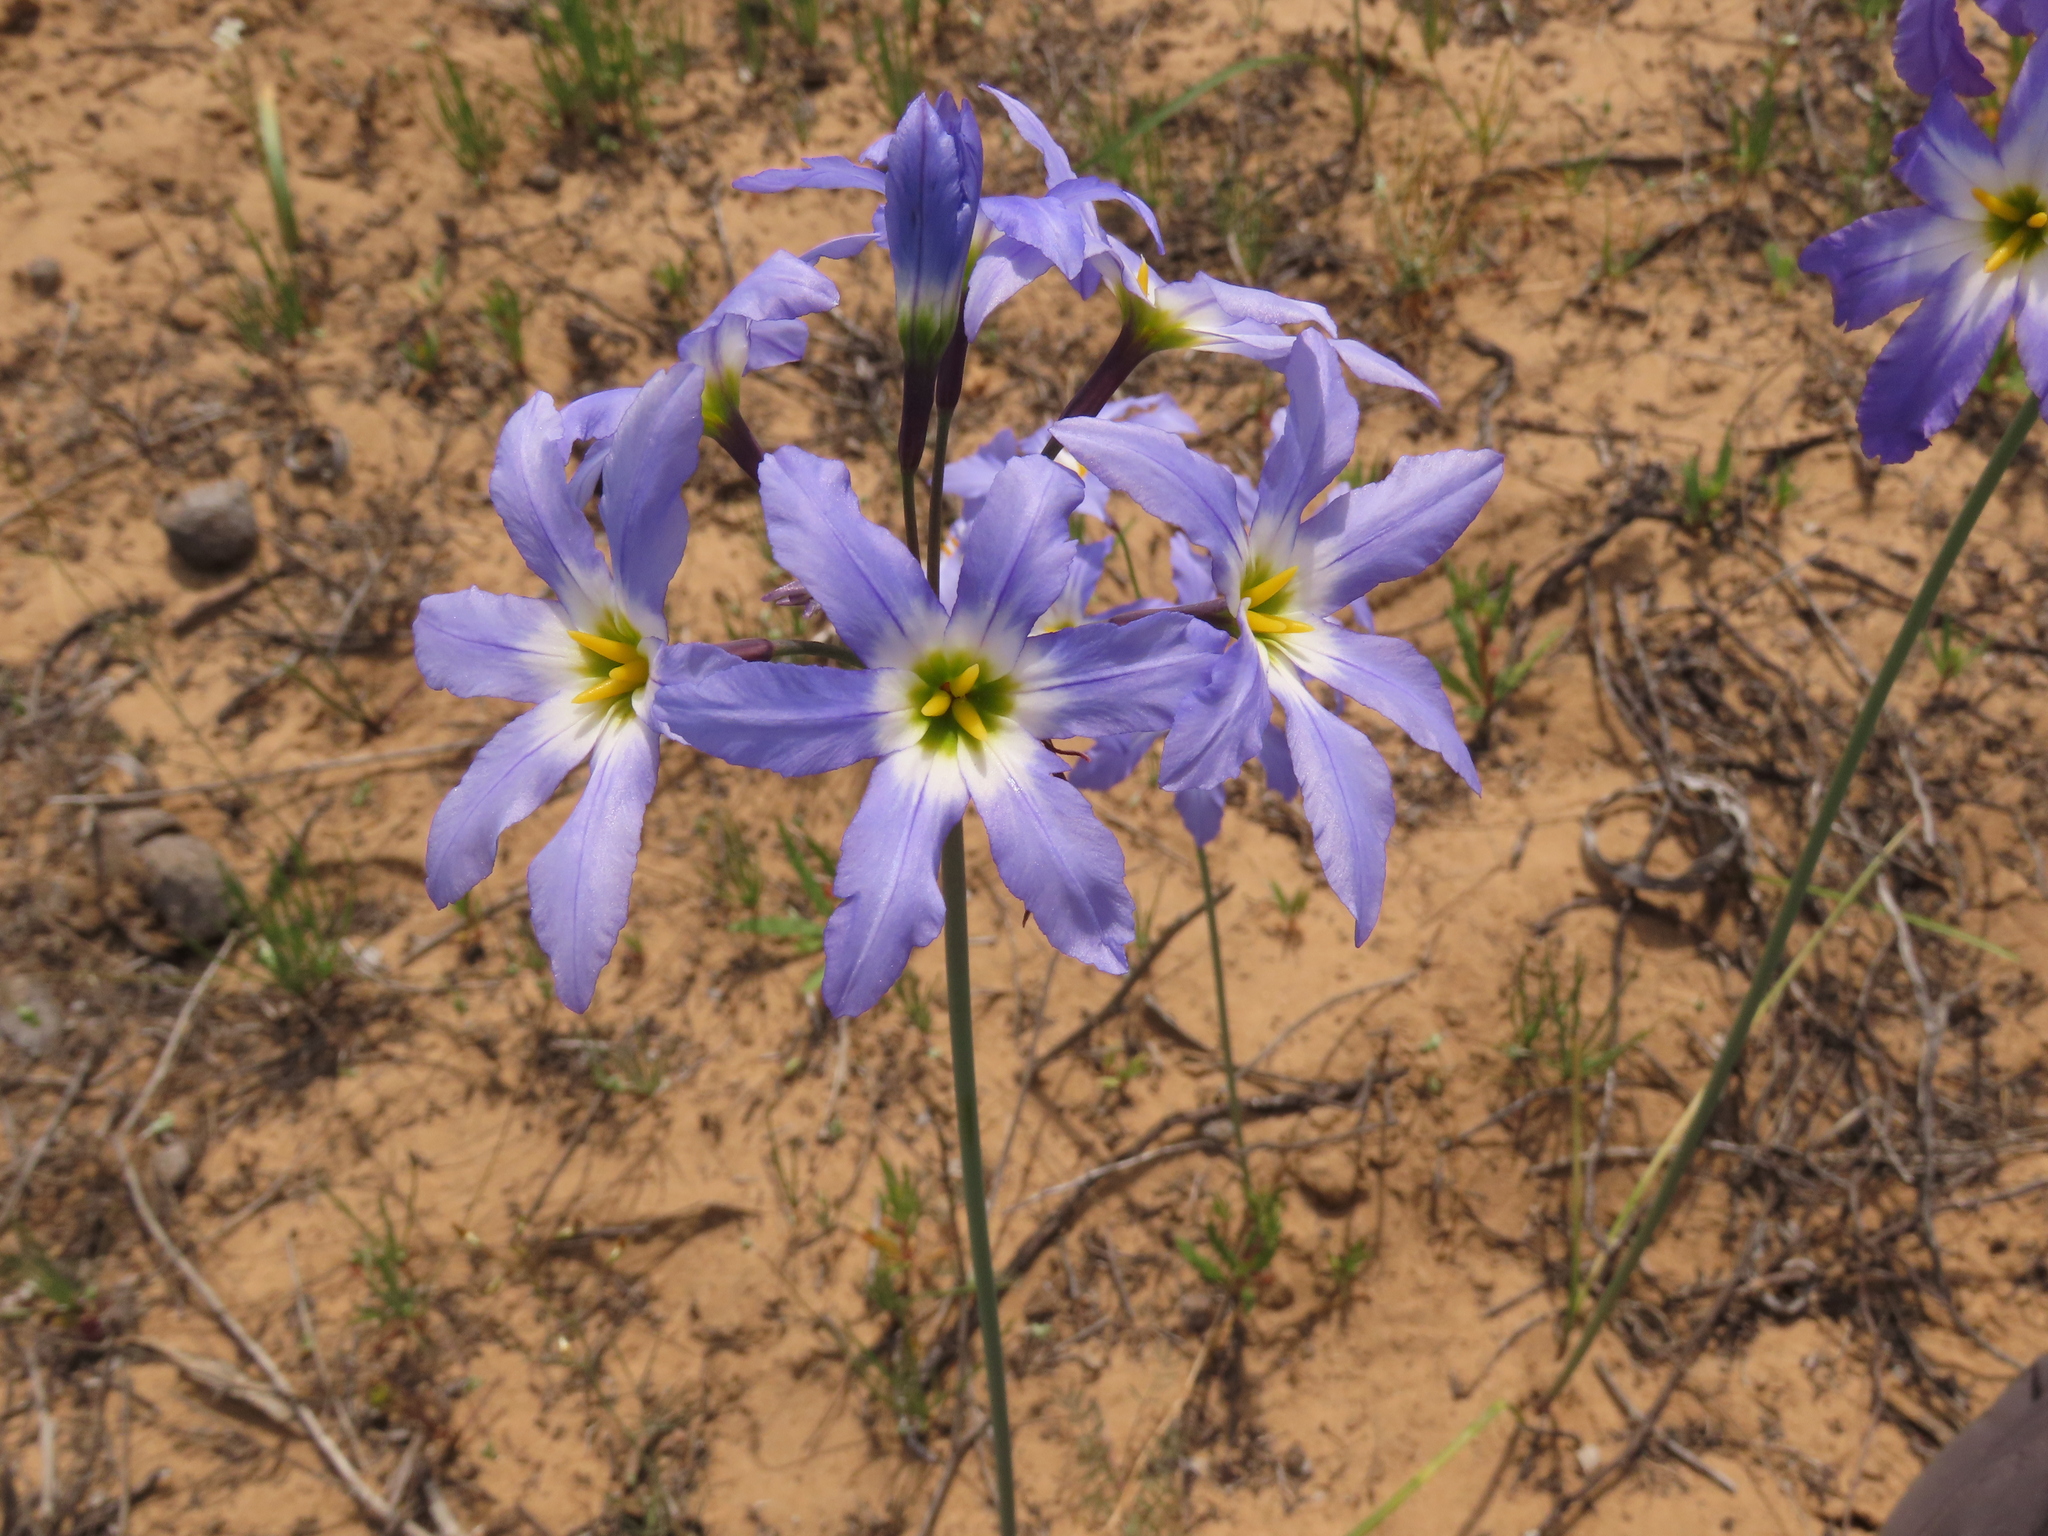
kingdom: Plantae
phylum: Tracheophyta
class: Liliopsida
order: Asparagales
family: Amaryllidaceae
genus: Leucocoryne
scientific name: Leucocoryne coquimbensis
